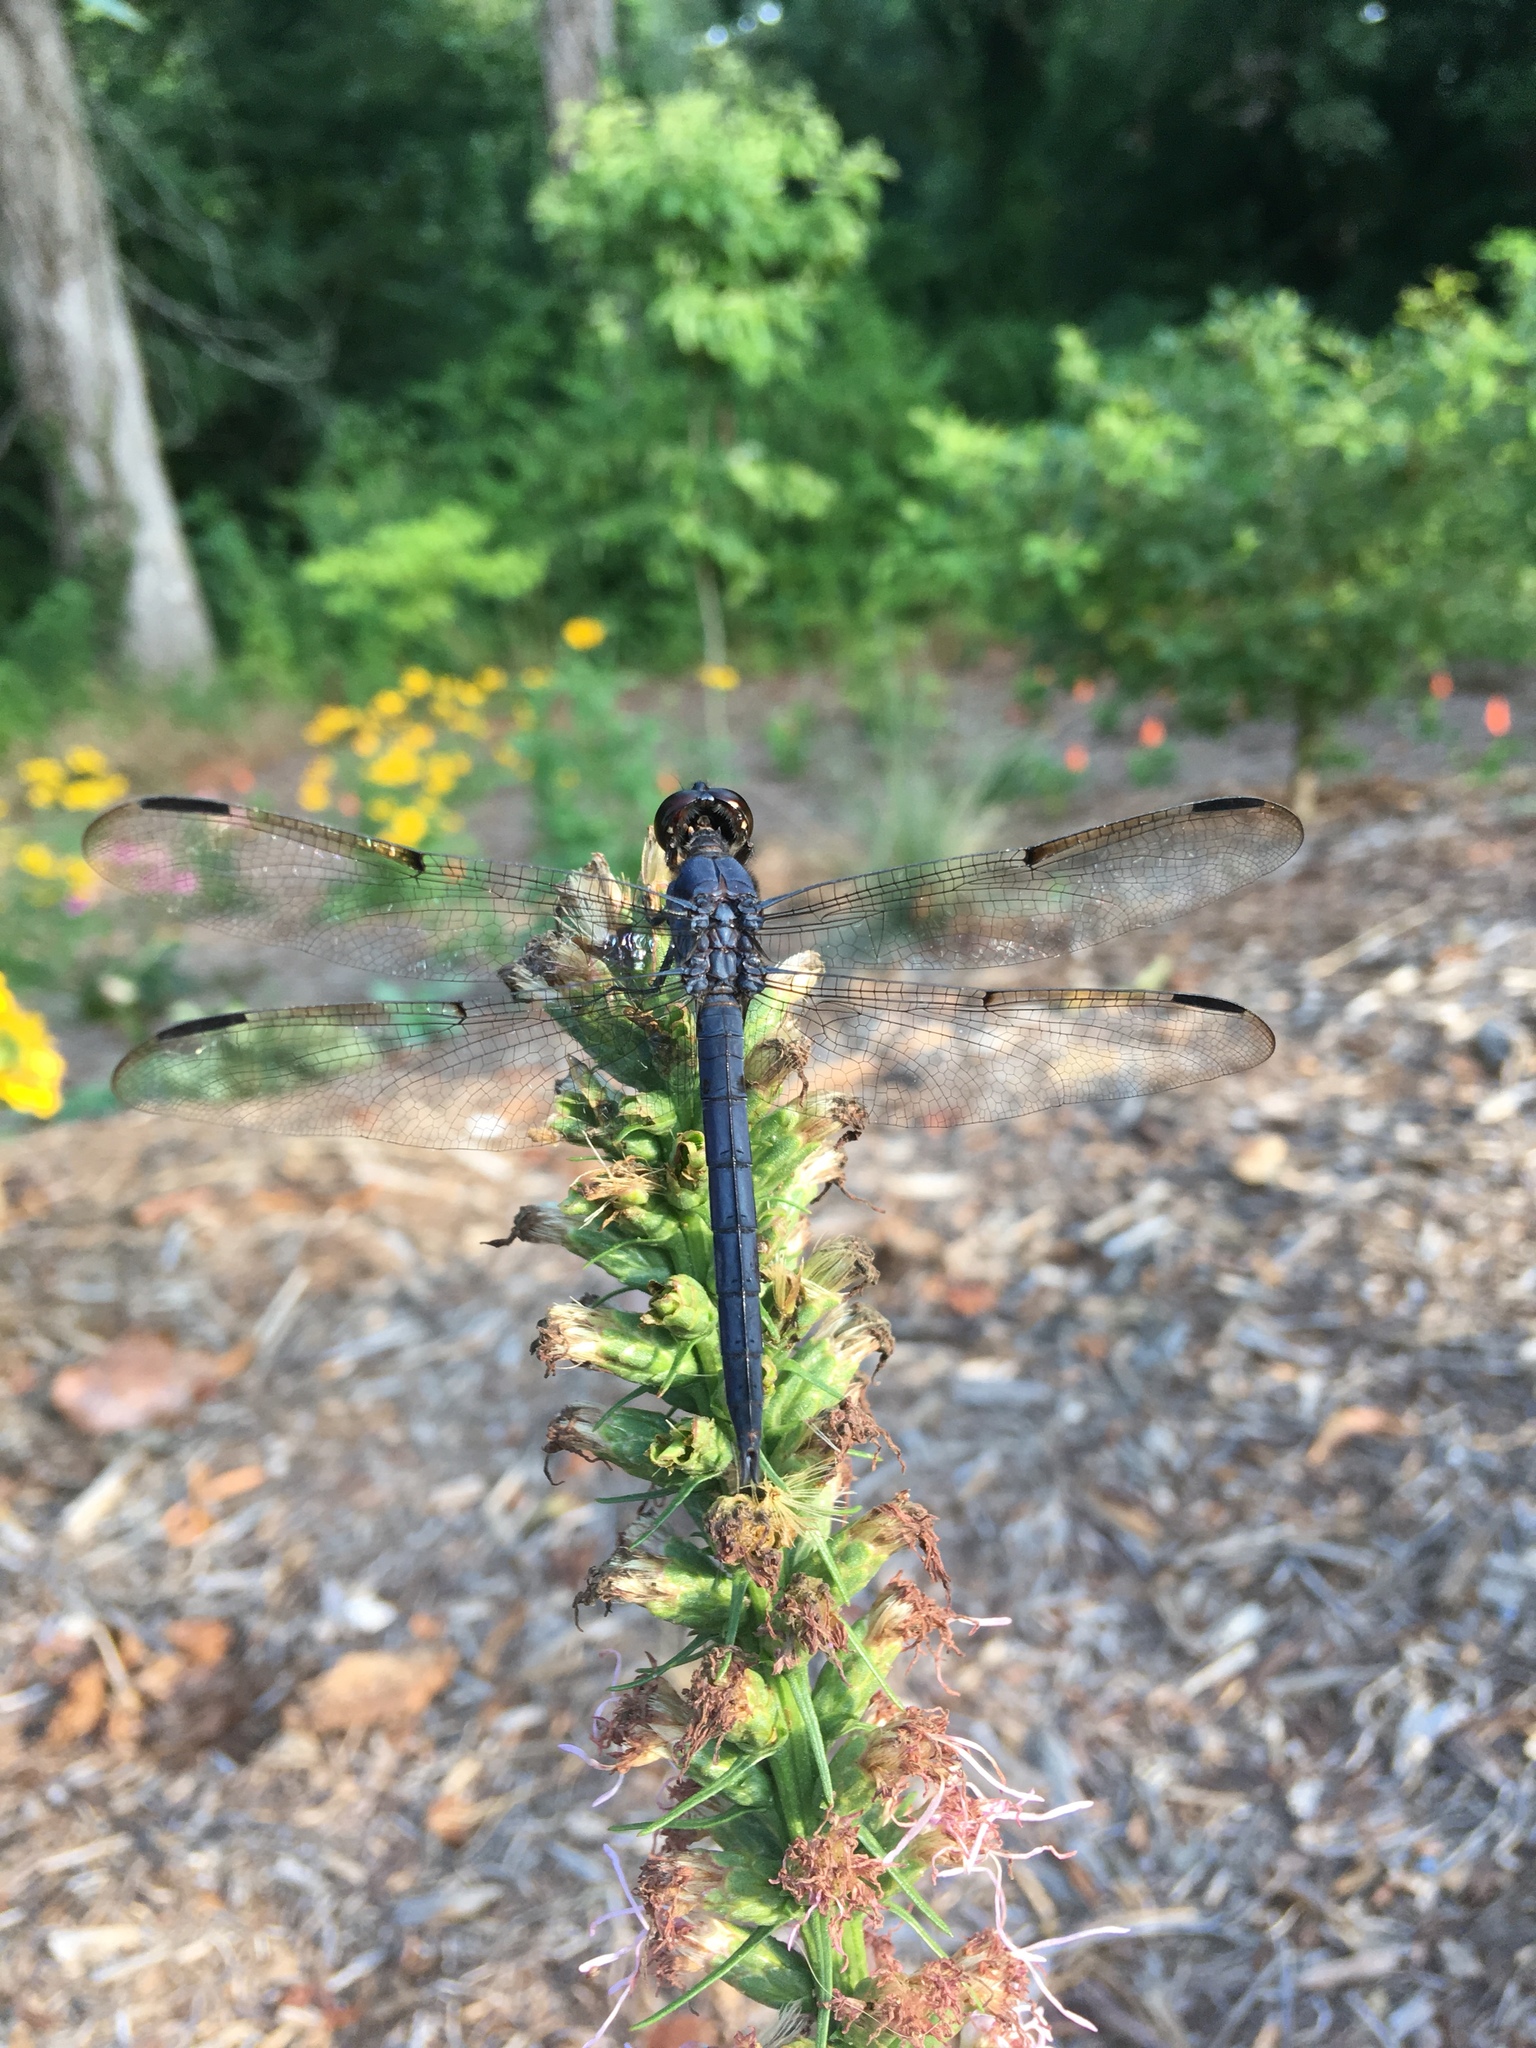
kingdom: Animalia
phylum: Arthropoda
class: Insecta
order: Odonata
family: Libellulidae
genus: Libellula
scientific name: Libellula incesta
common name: Slaty skimmer
